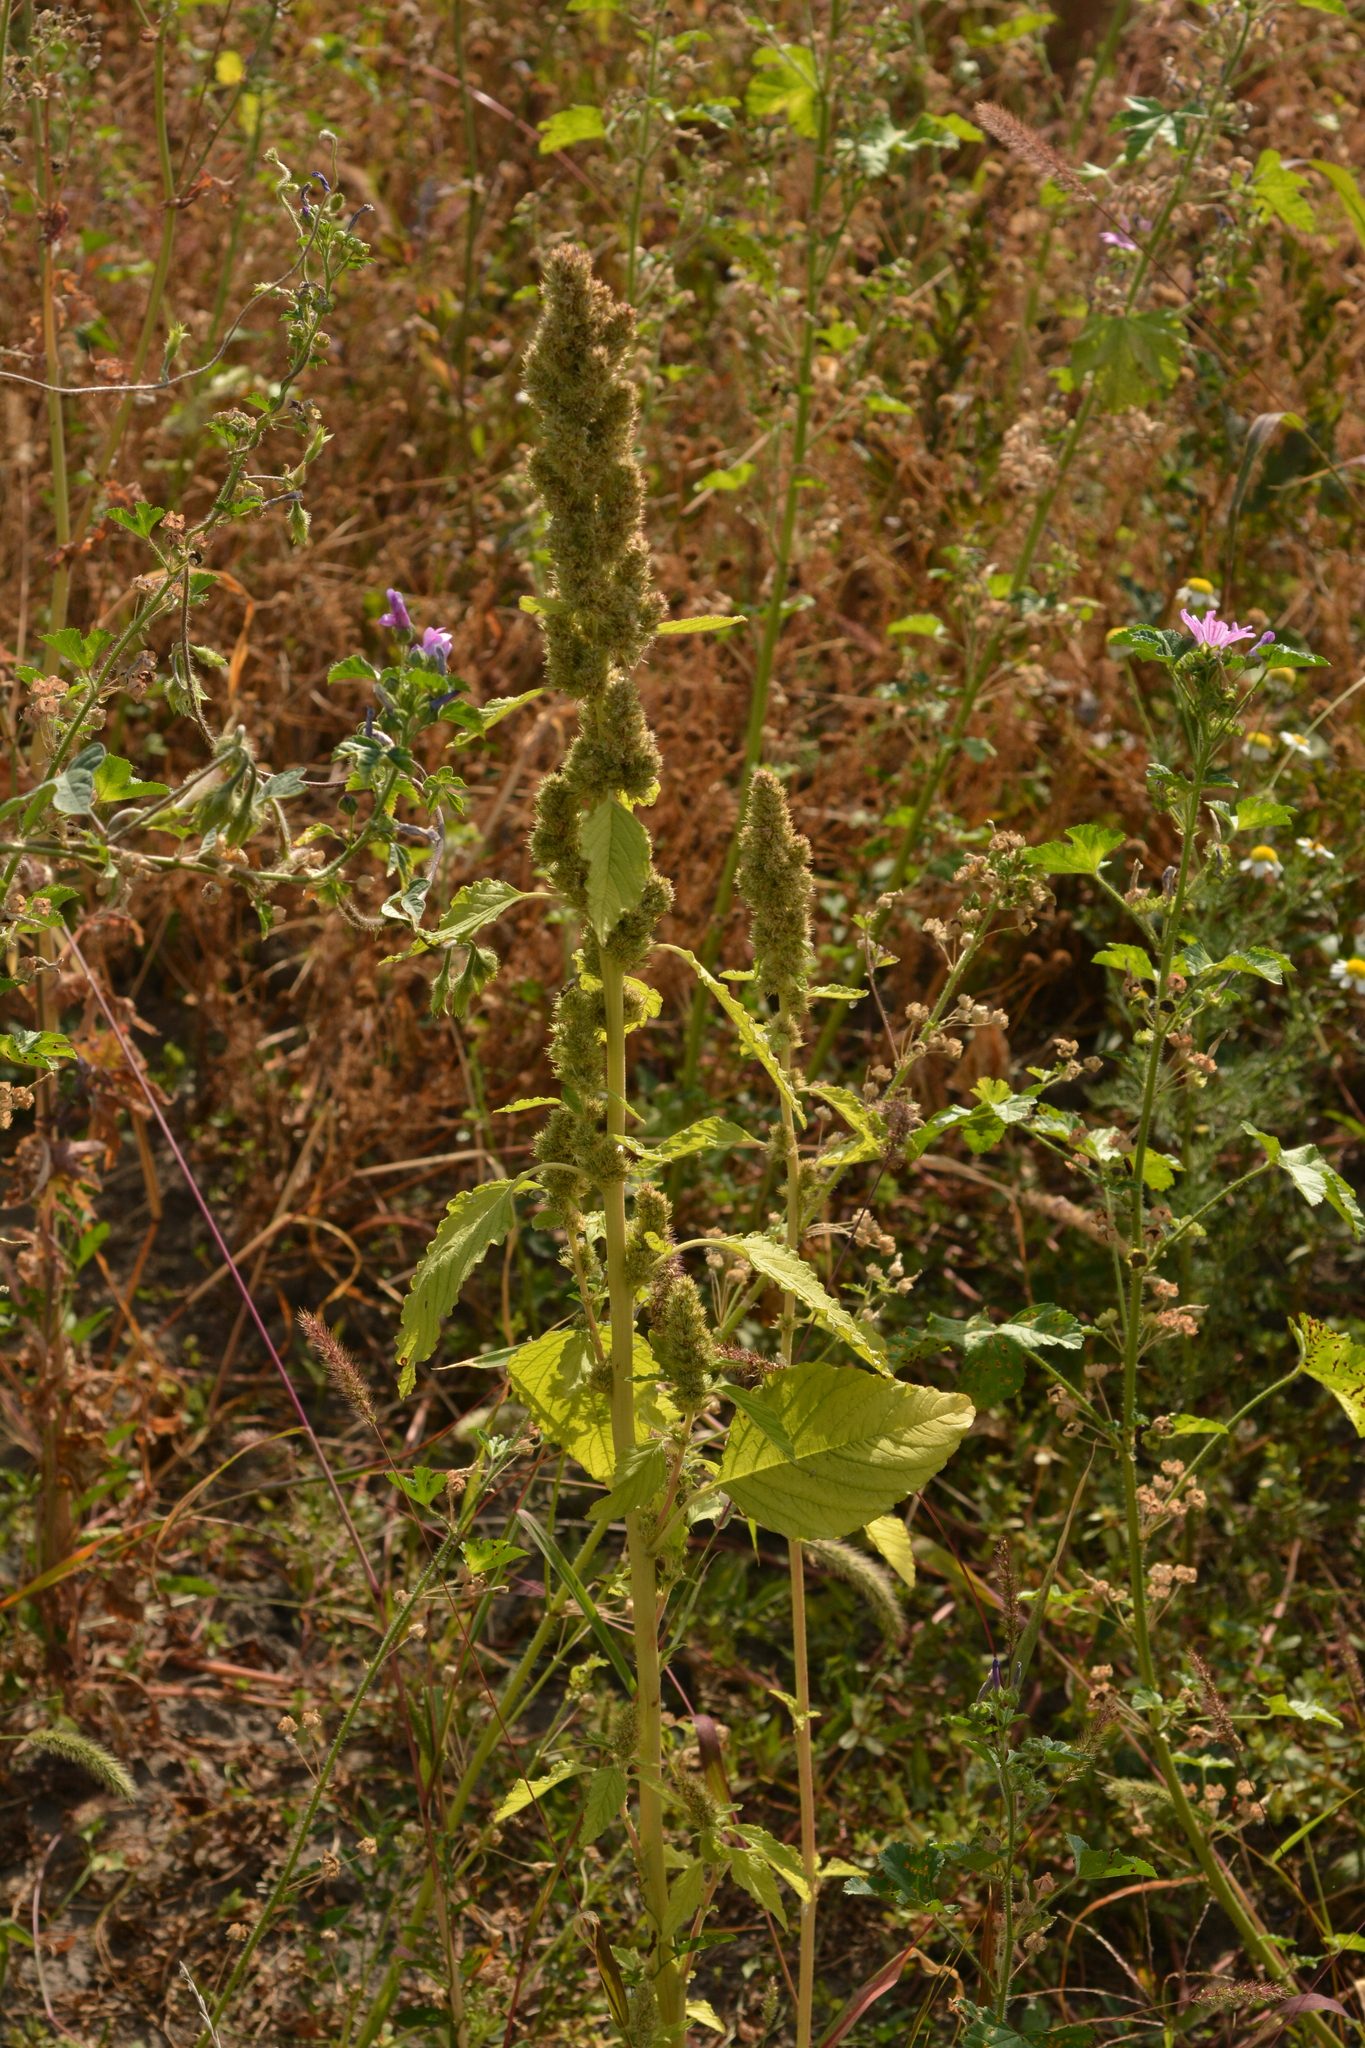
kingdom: Plantae
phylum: Tracheophyta
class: Magnoliopsida
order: Caryophyllales
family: Amaranthaceae
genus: Amaranthus
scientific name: Amaranthus retroflexus
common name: Redroot amaranth
